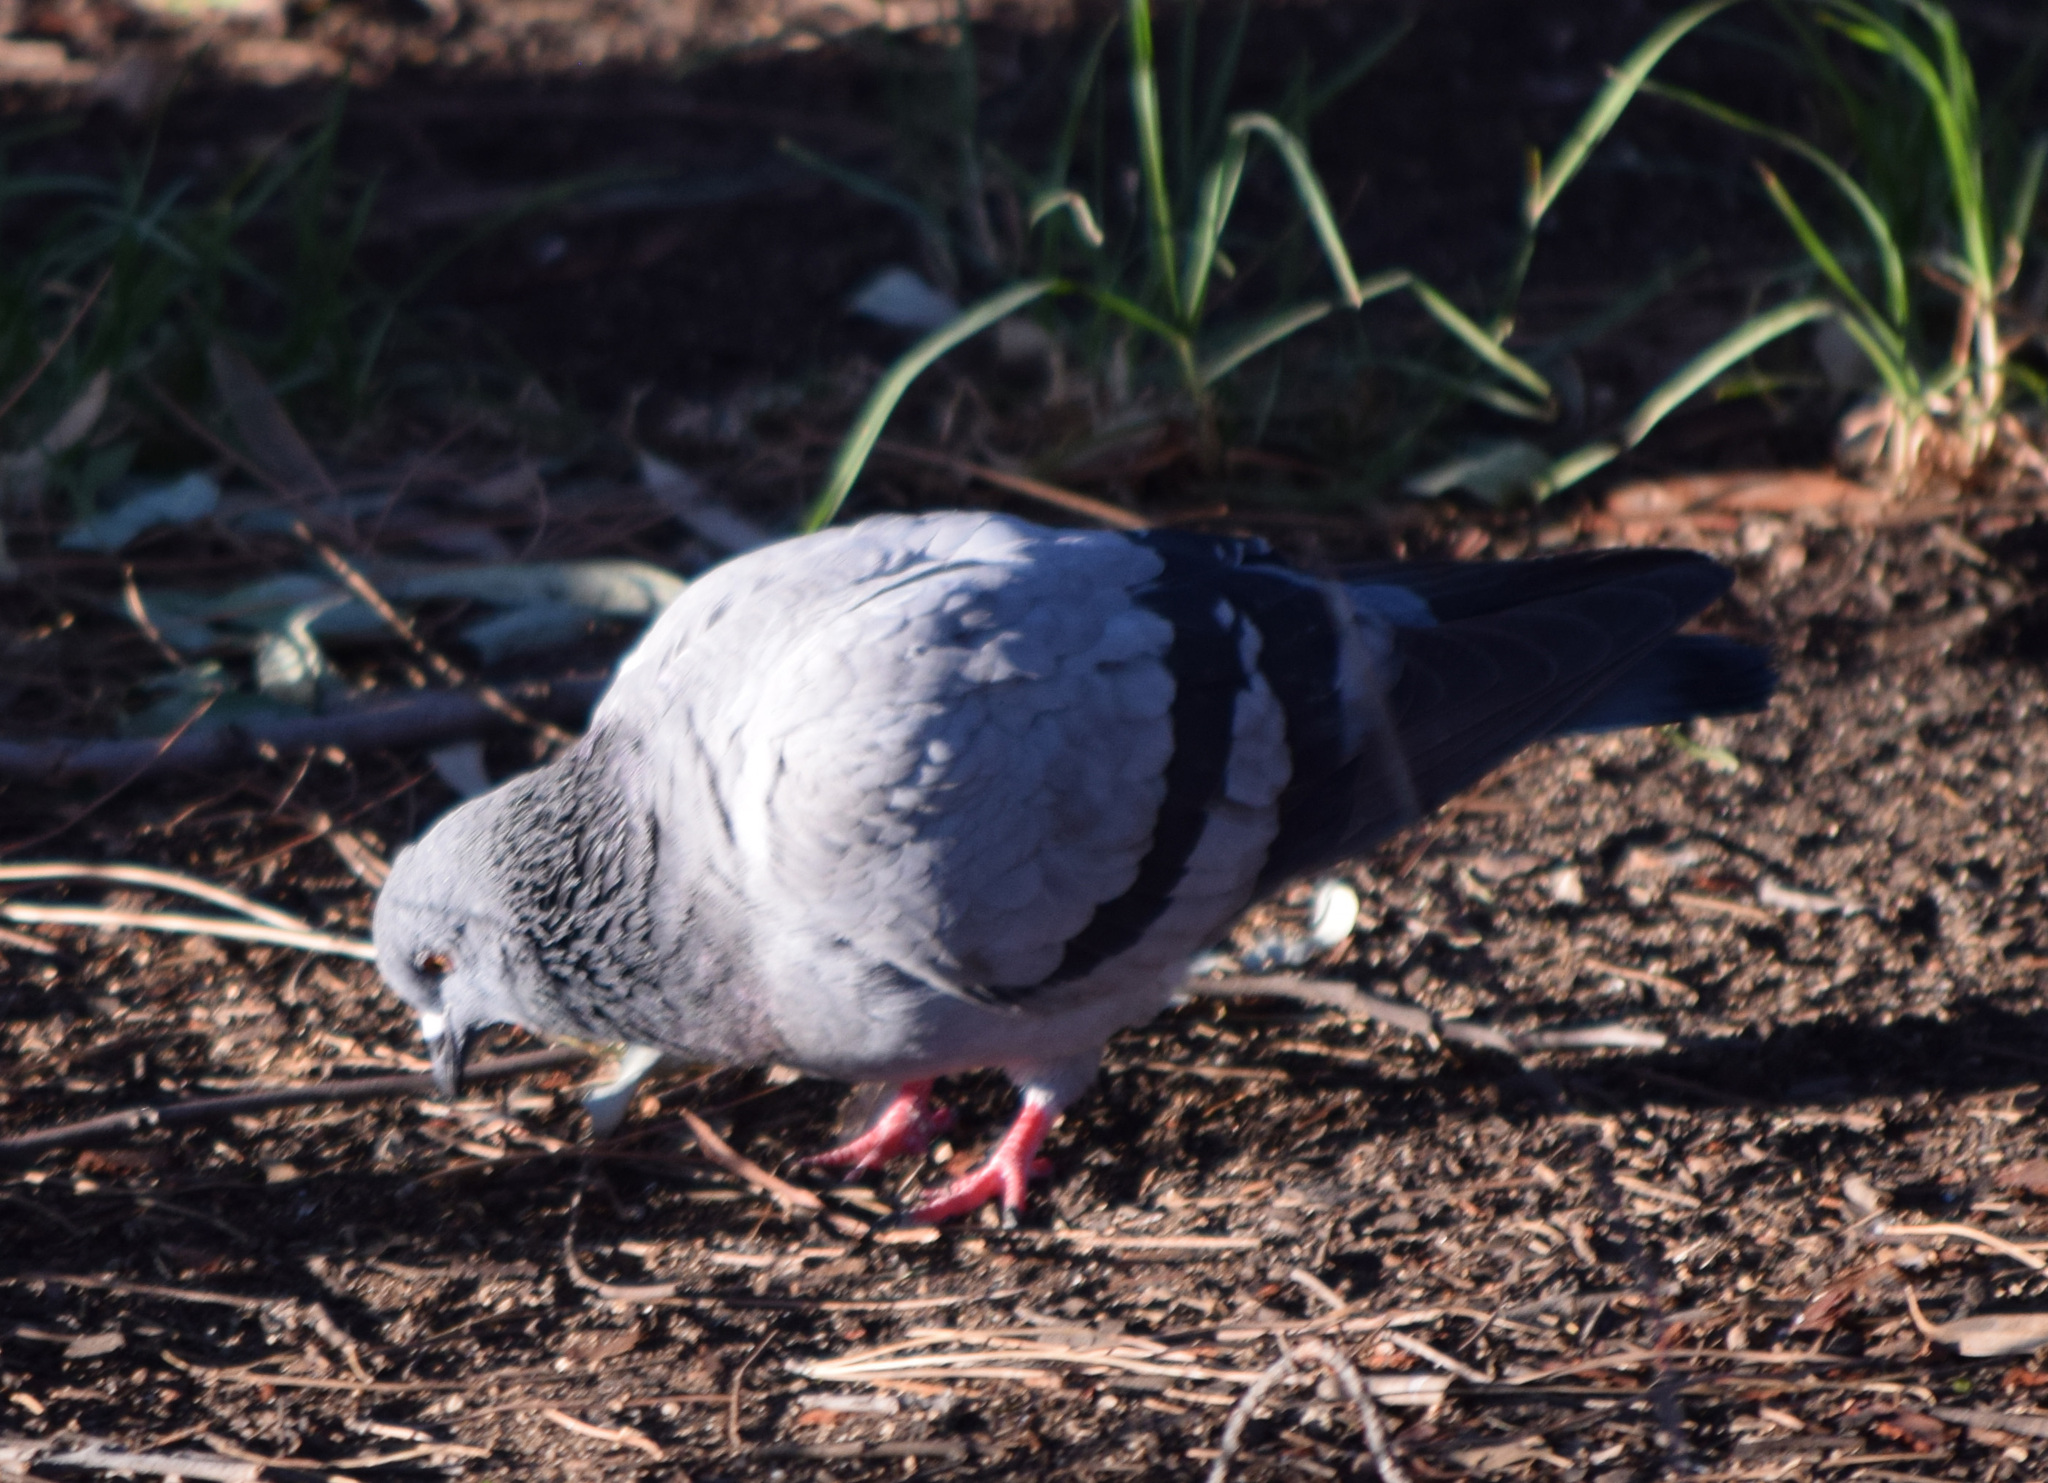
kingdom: Animalia
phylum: Chordata
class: Aves
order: Columbiformes
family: Columbidae
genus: Columba
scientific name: Columba livia
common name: Rock pigeon
